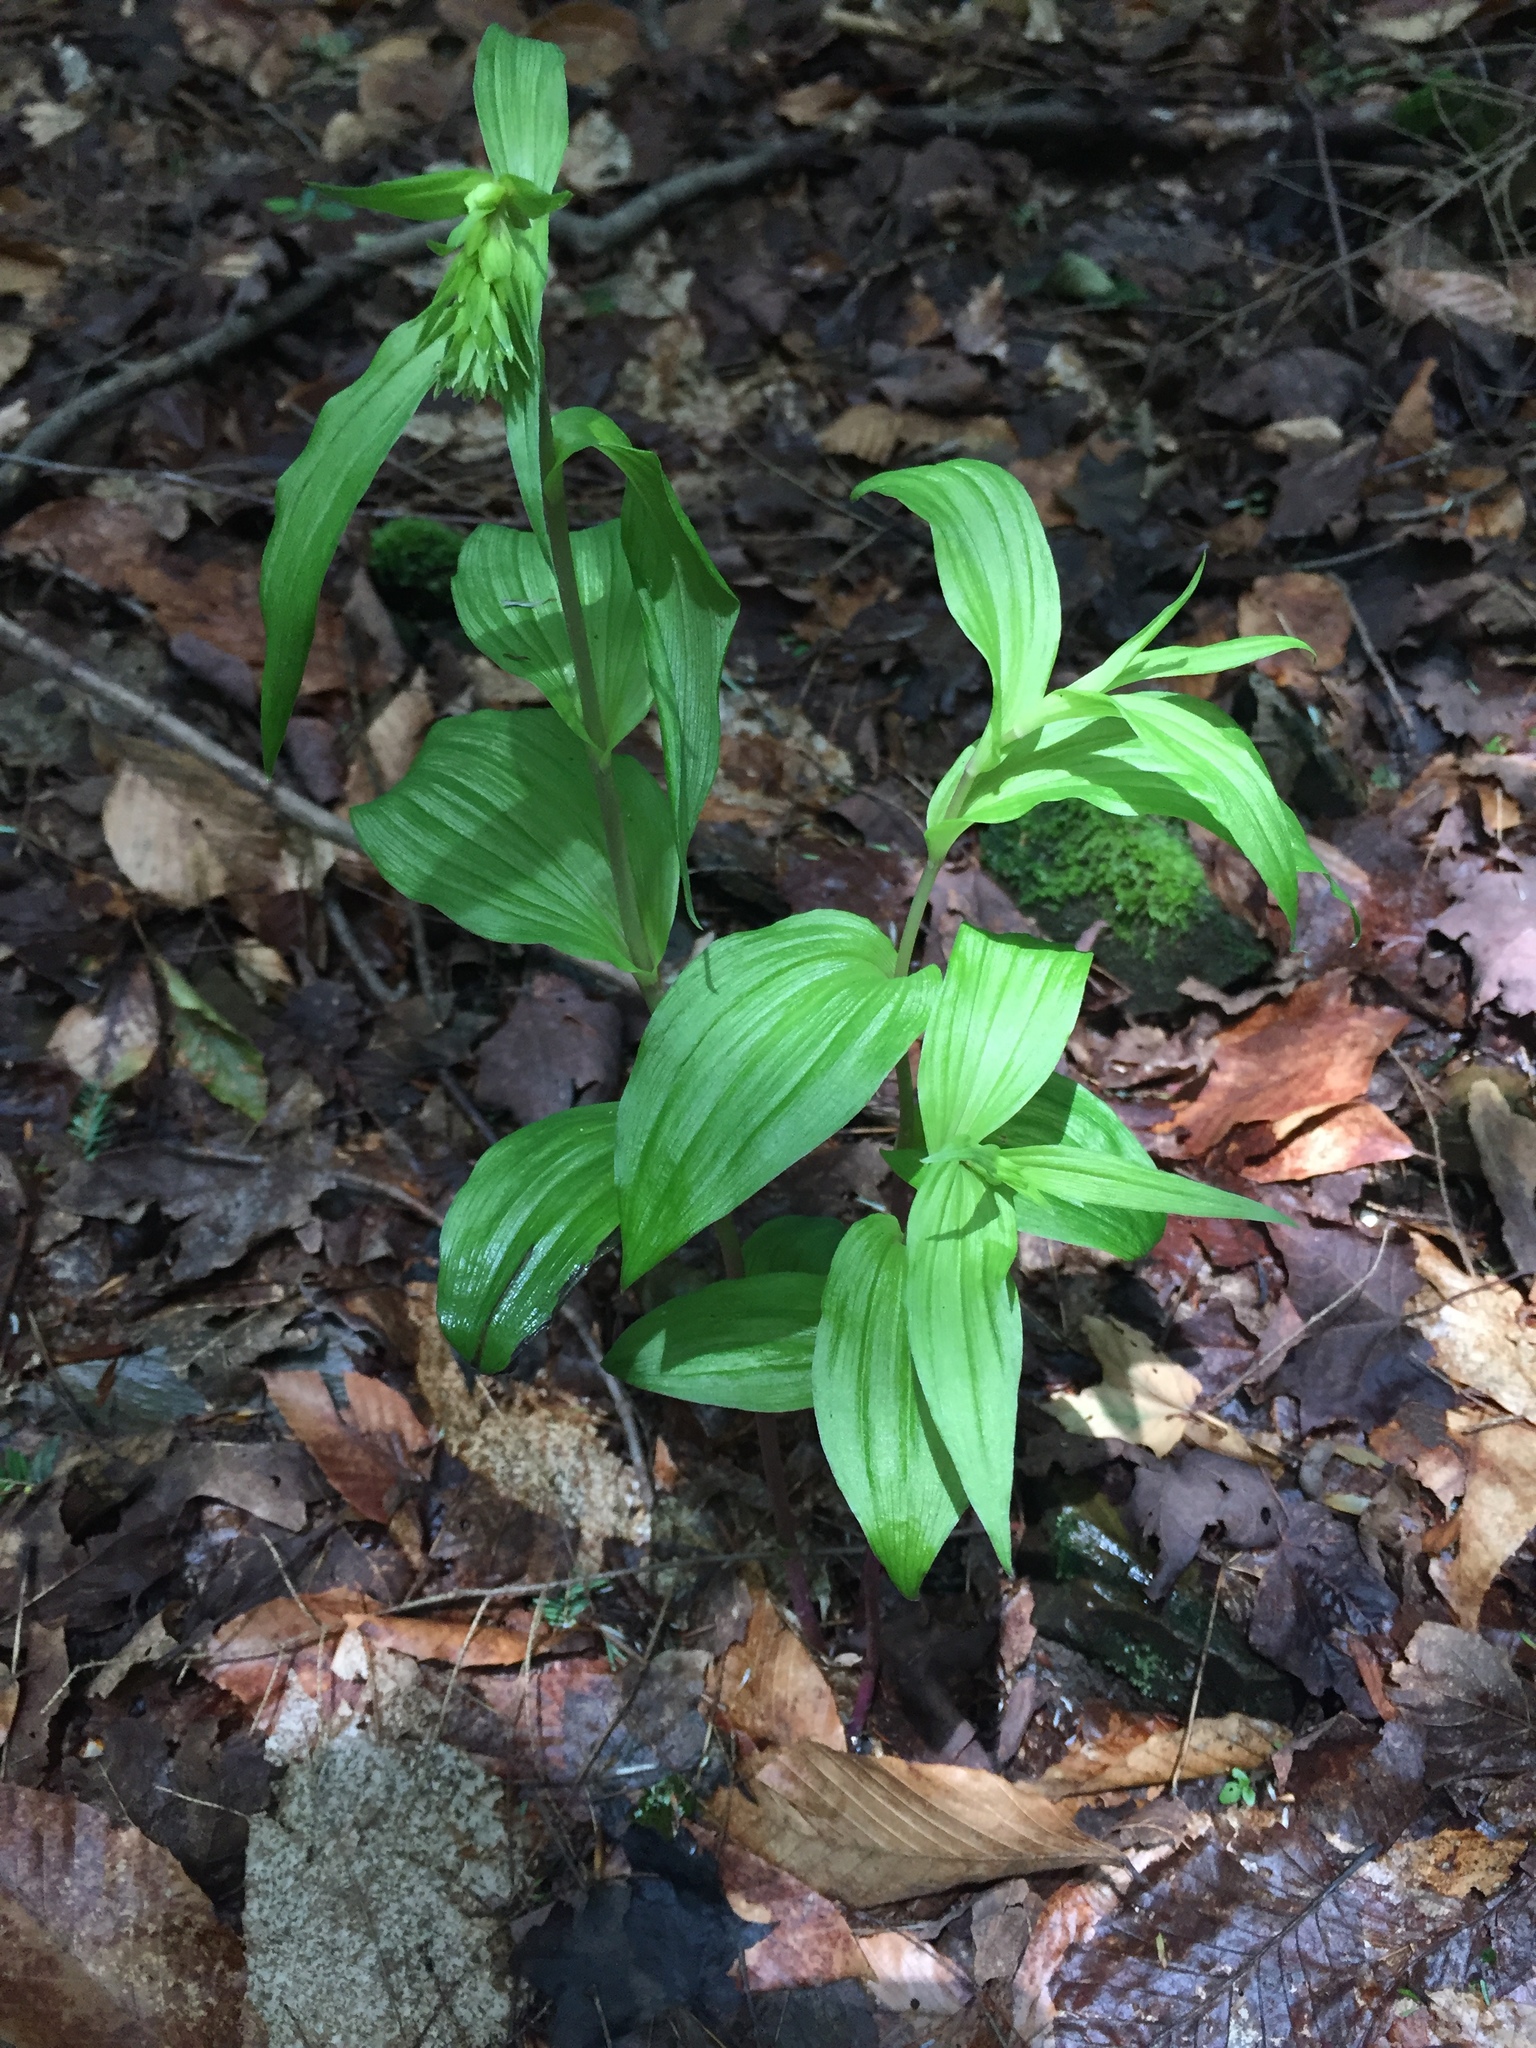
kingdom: Plantae
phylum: Tracheophyta
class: Liliopsida
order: Asparagales
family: Orchidaceae
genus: Epipactis
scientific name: Epipactis helleborine
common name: Broad-leaved helleborine
